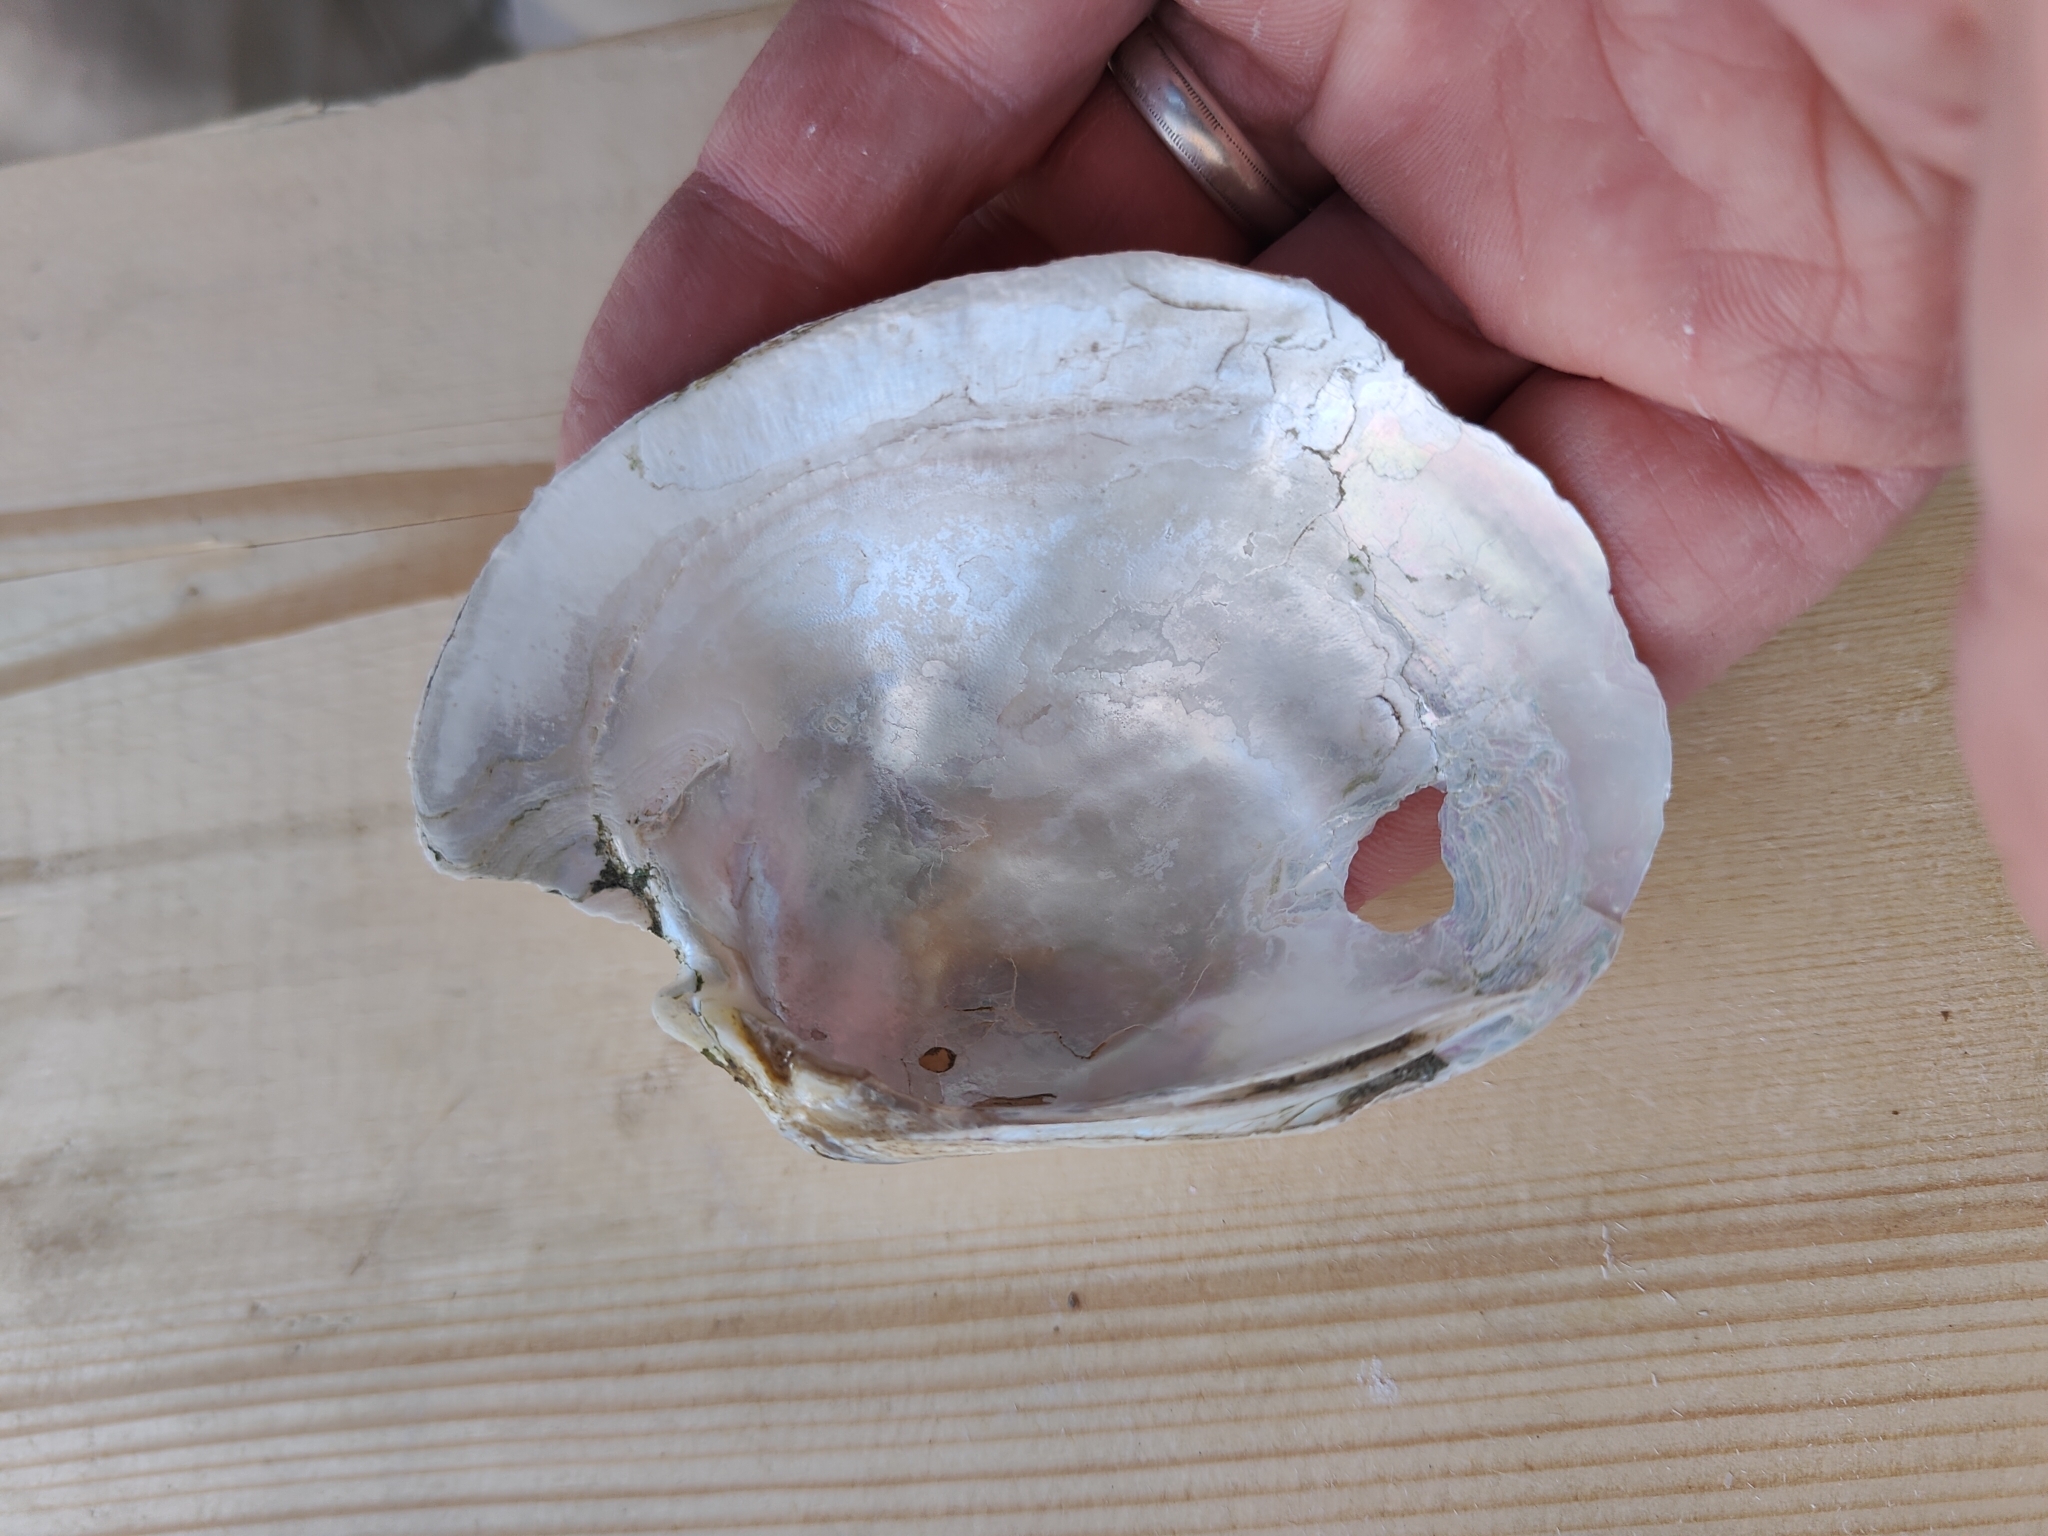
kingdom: Animalia
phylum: Mollusca
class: Bivalvia
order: Unionida
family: Unionidae
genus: Lampsilis
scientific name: Lampsilis cardium
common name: Plain pocketbook
